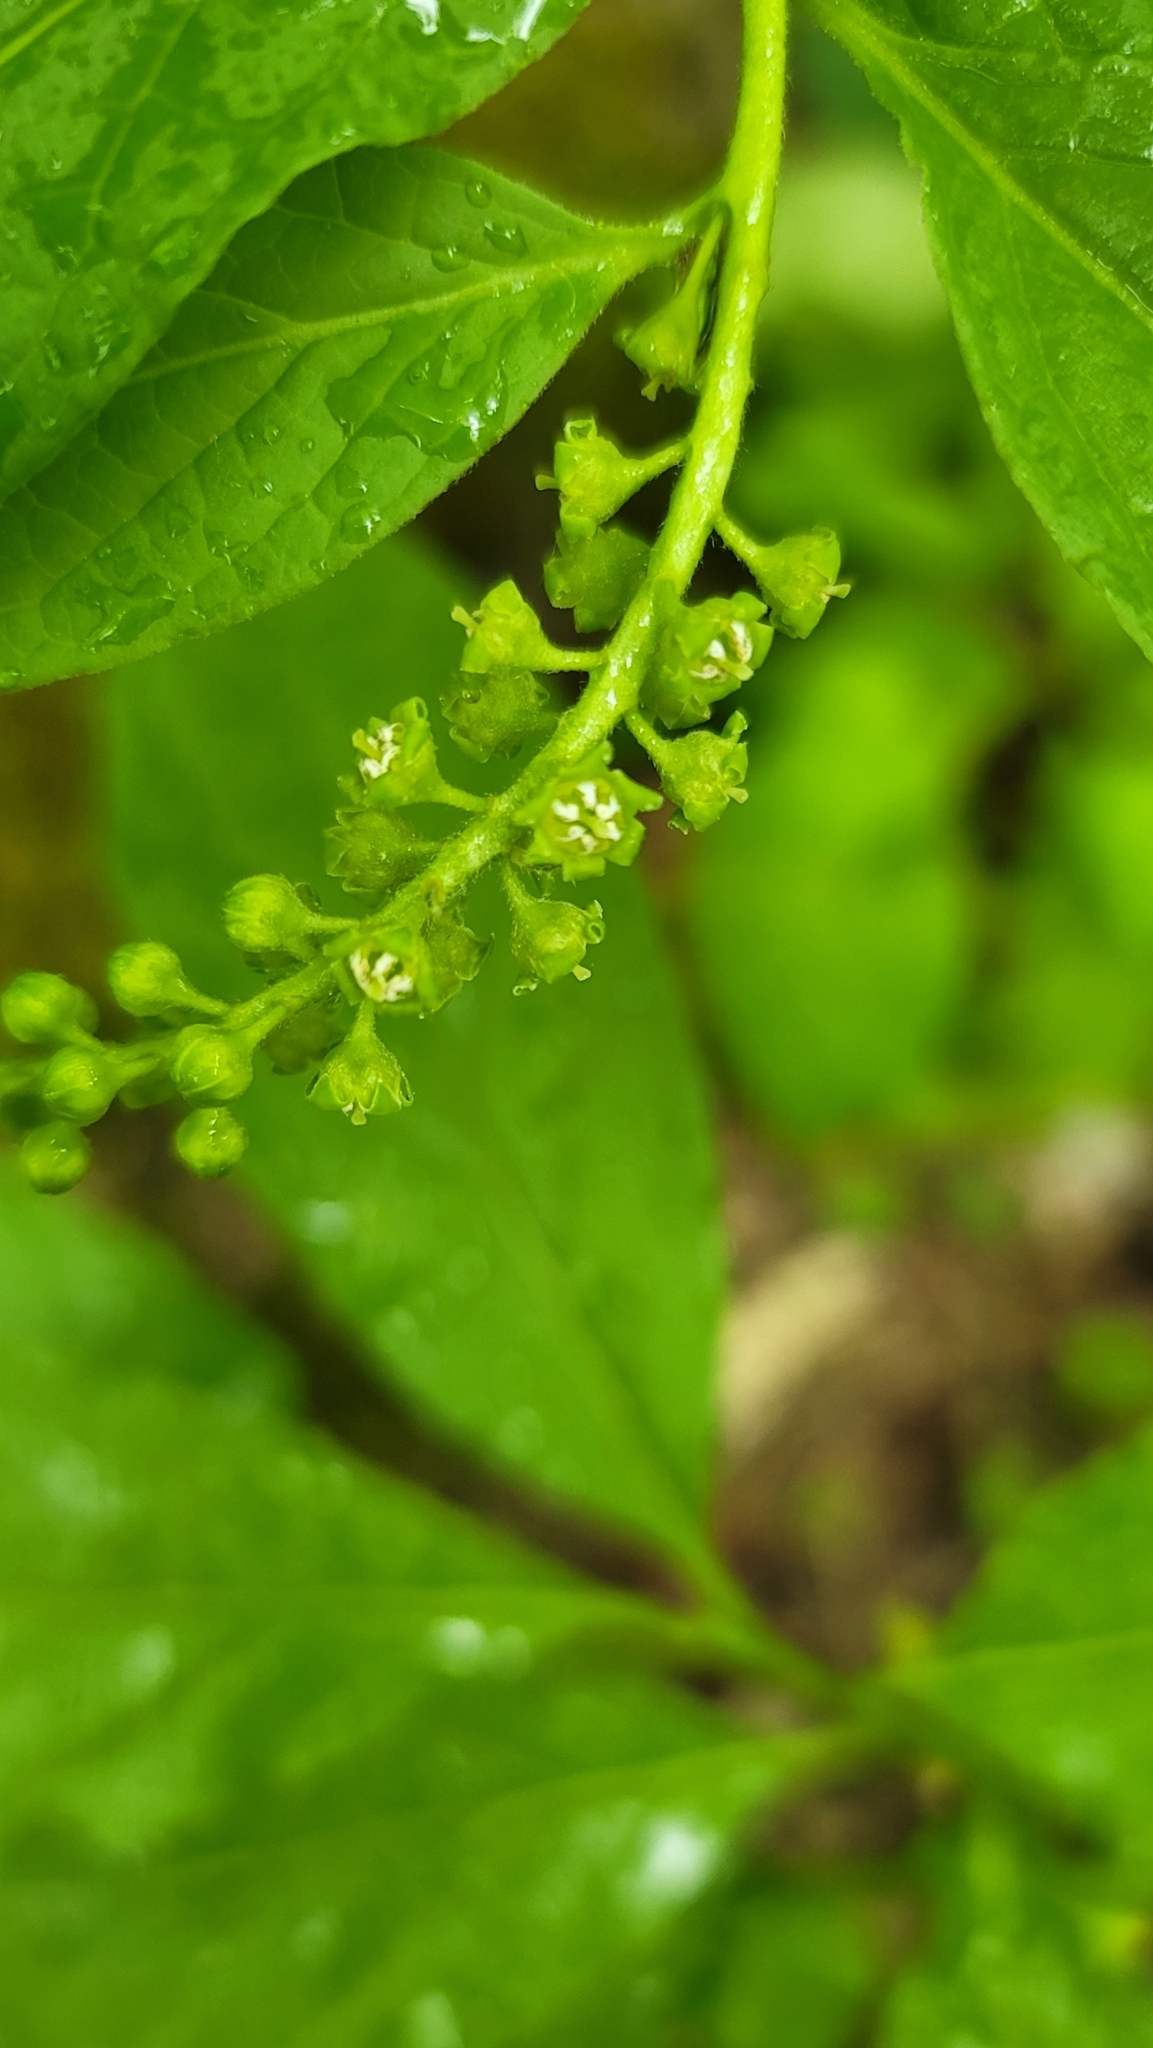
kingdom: Plantae
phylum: Tracheophyta
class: Magnoliopsida
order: Santalales
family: Cervantesiaceae
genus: Pyrularia
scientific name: Pyrularia pubera
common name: Oilnut
